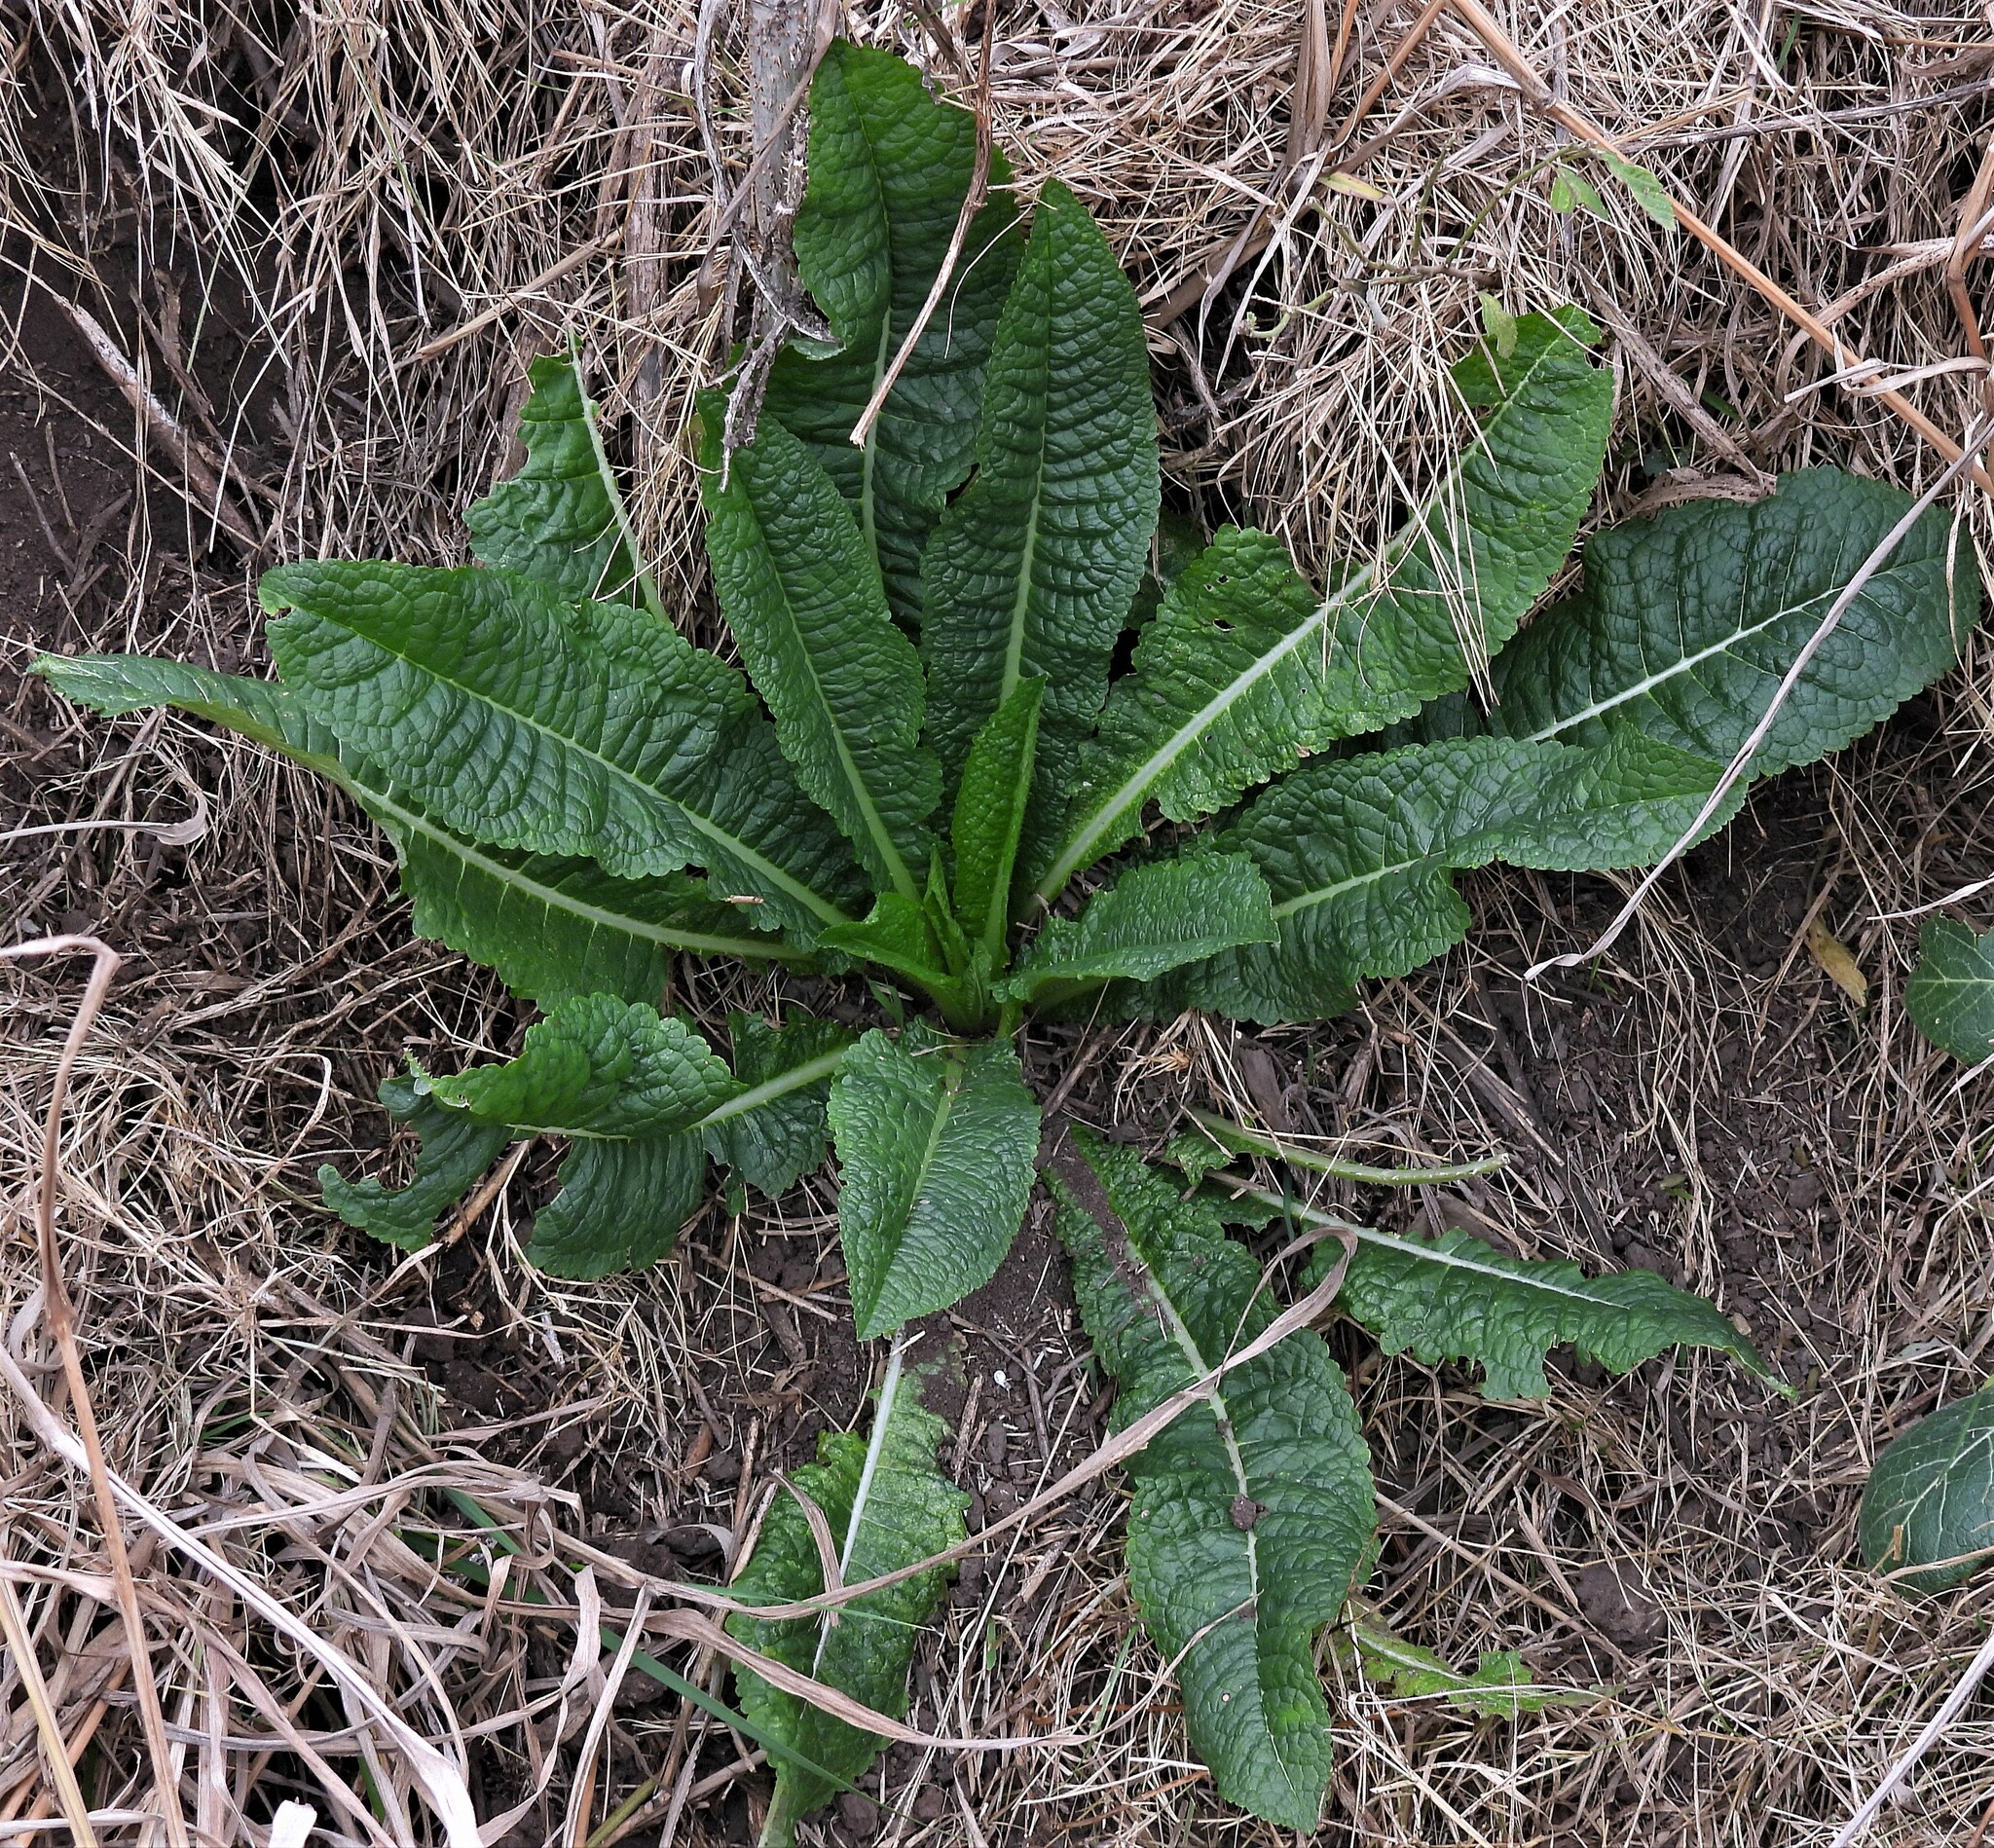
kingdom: Plantae
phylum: Tracheophyta
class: Magnoliopsida
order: Dipsacales
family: Caprifoliaceae
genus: Dipsacus
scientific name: Dipsacus fullonum
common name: Teasel
